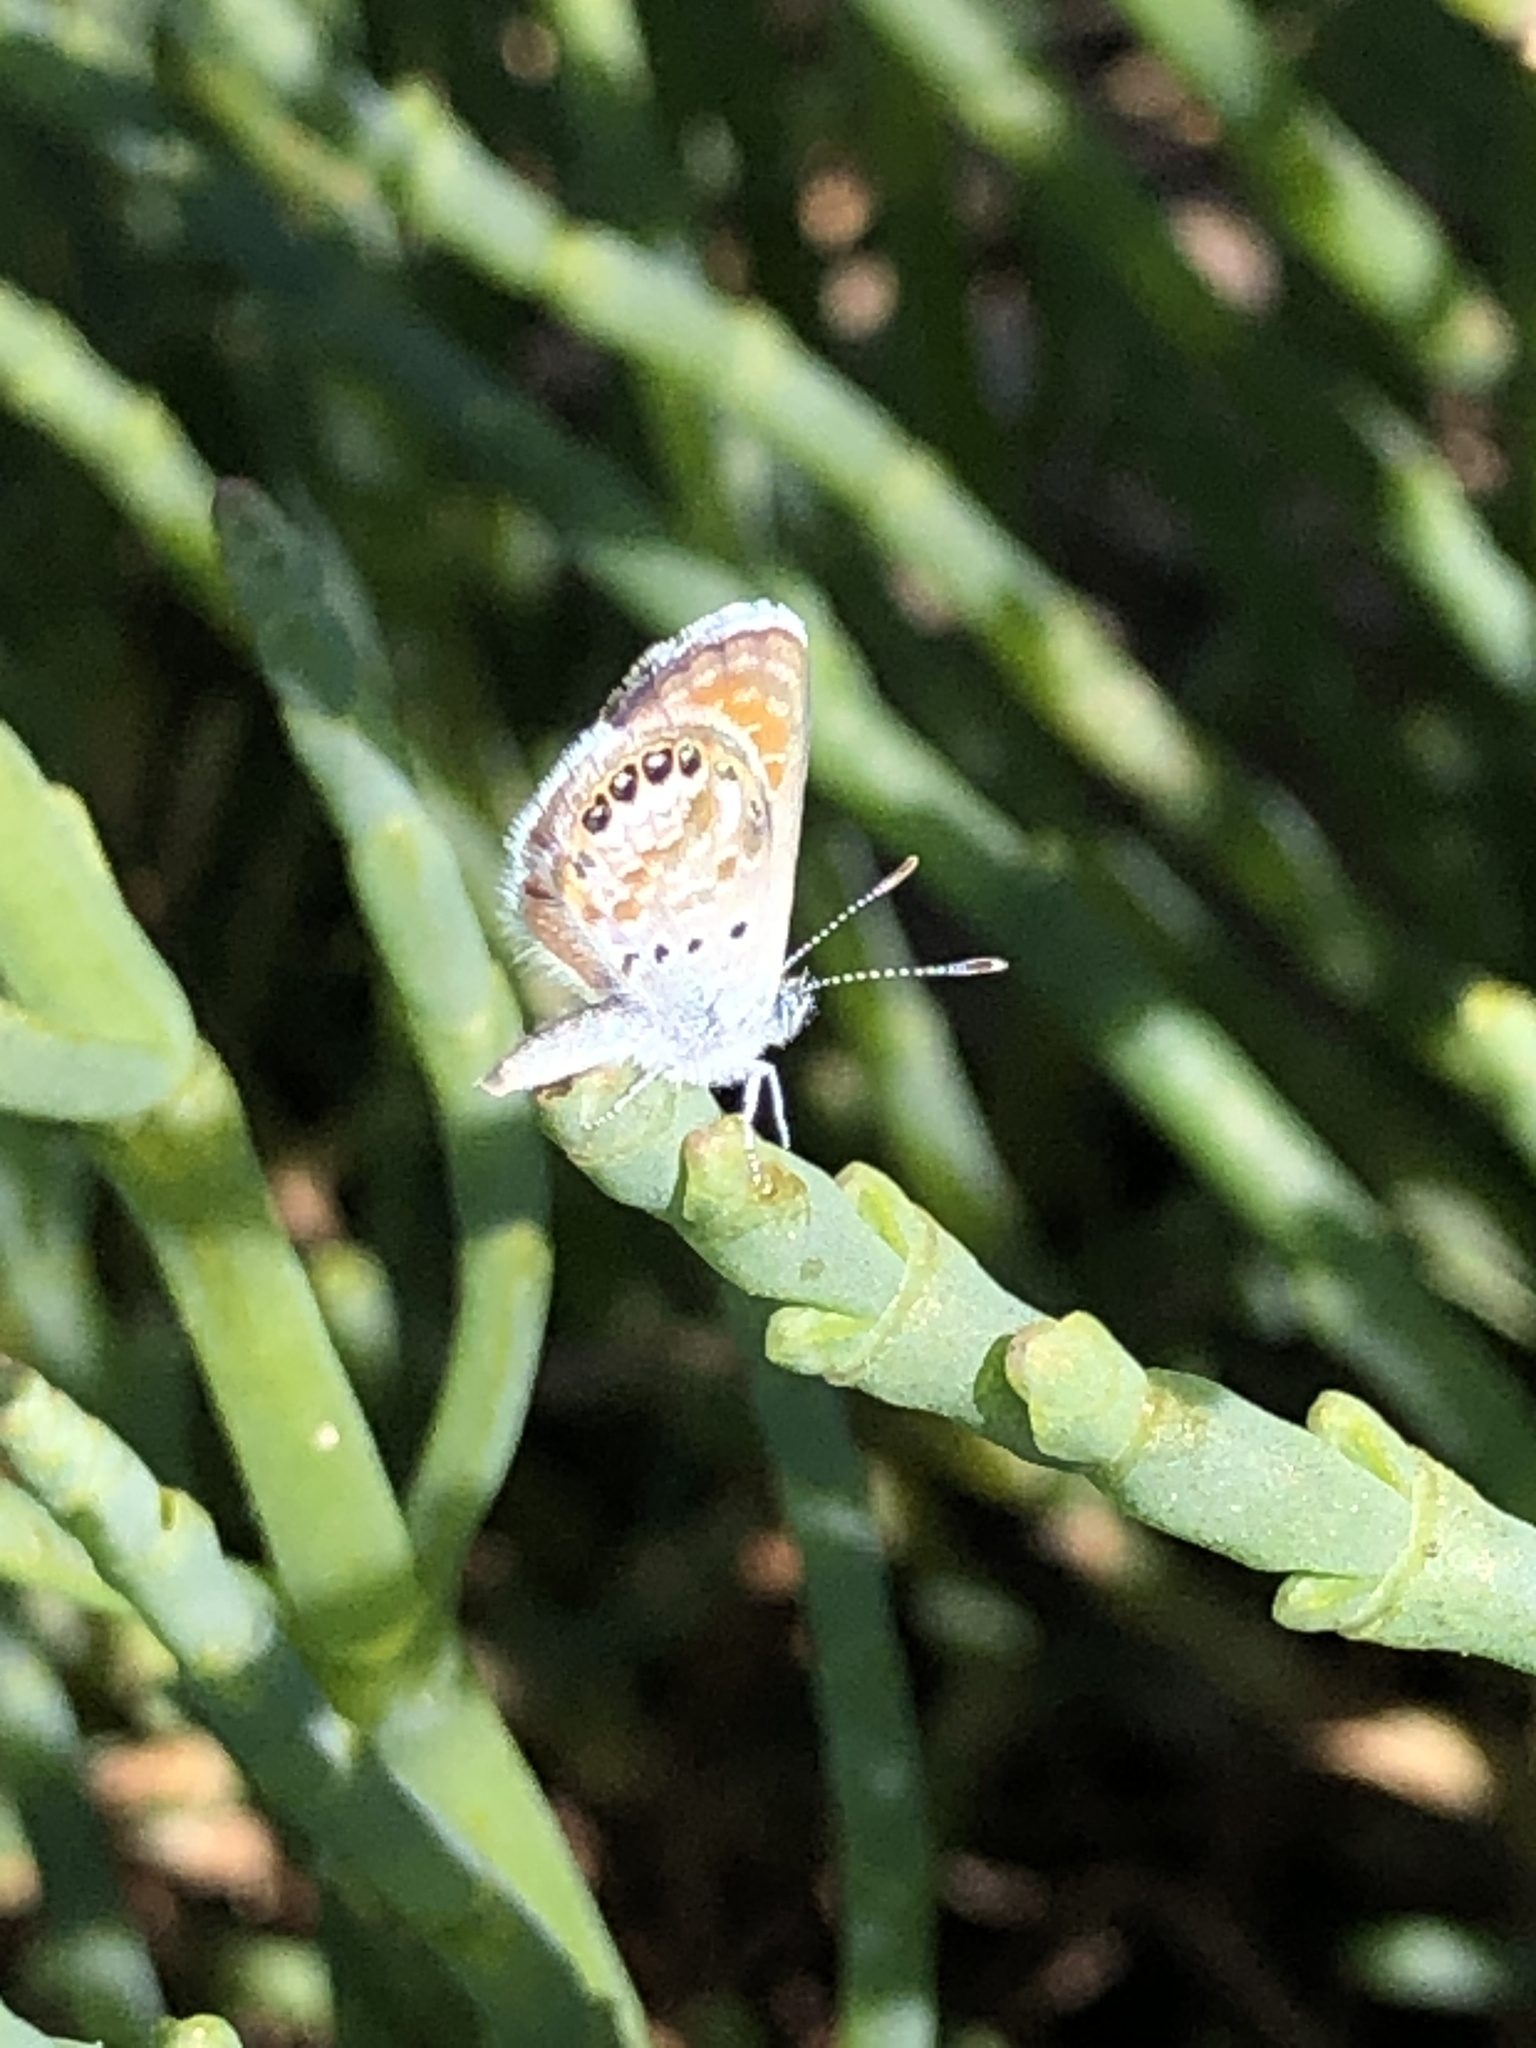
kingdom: Animalia
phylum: Arthropoda
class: Insecta
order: Lepidoptera
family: Lycaenidae
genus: Brephidium
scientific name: Brephidium exilis
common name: Pygmy blue
